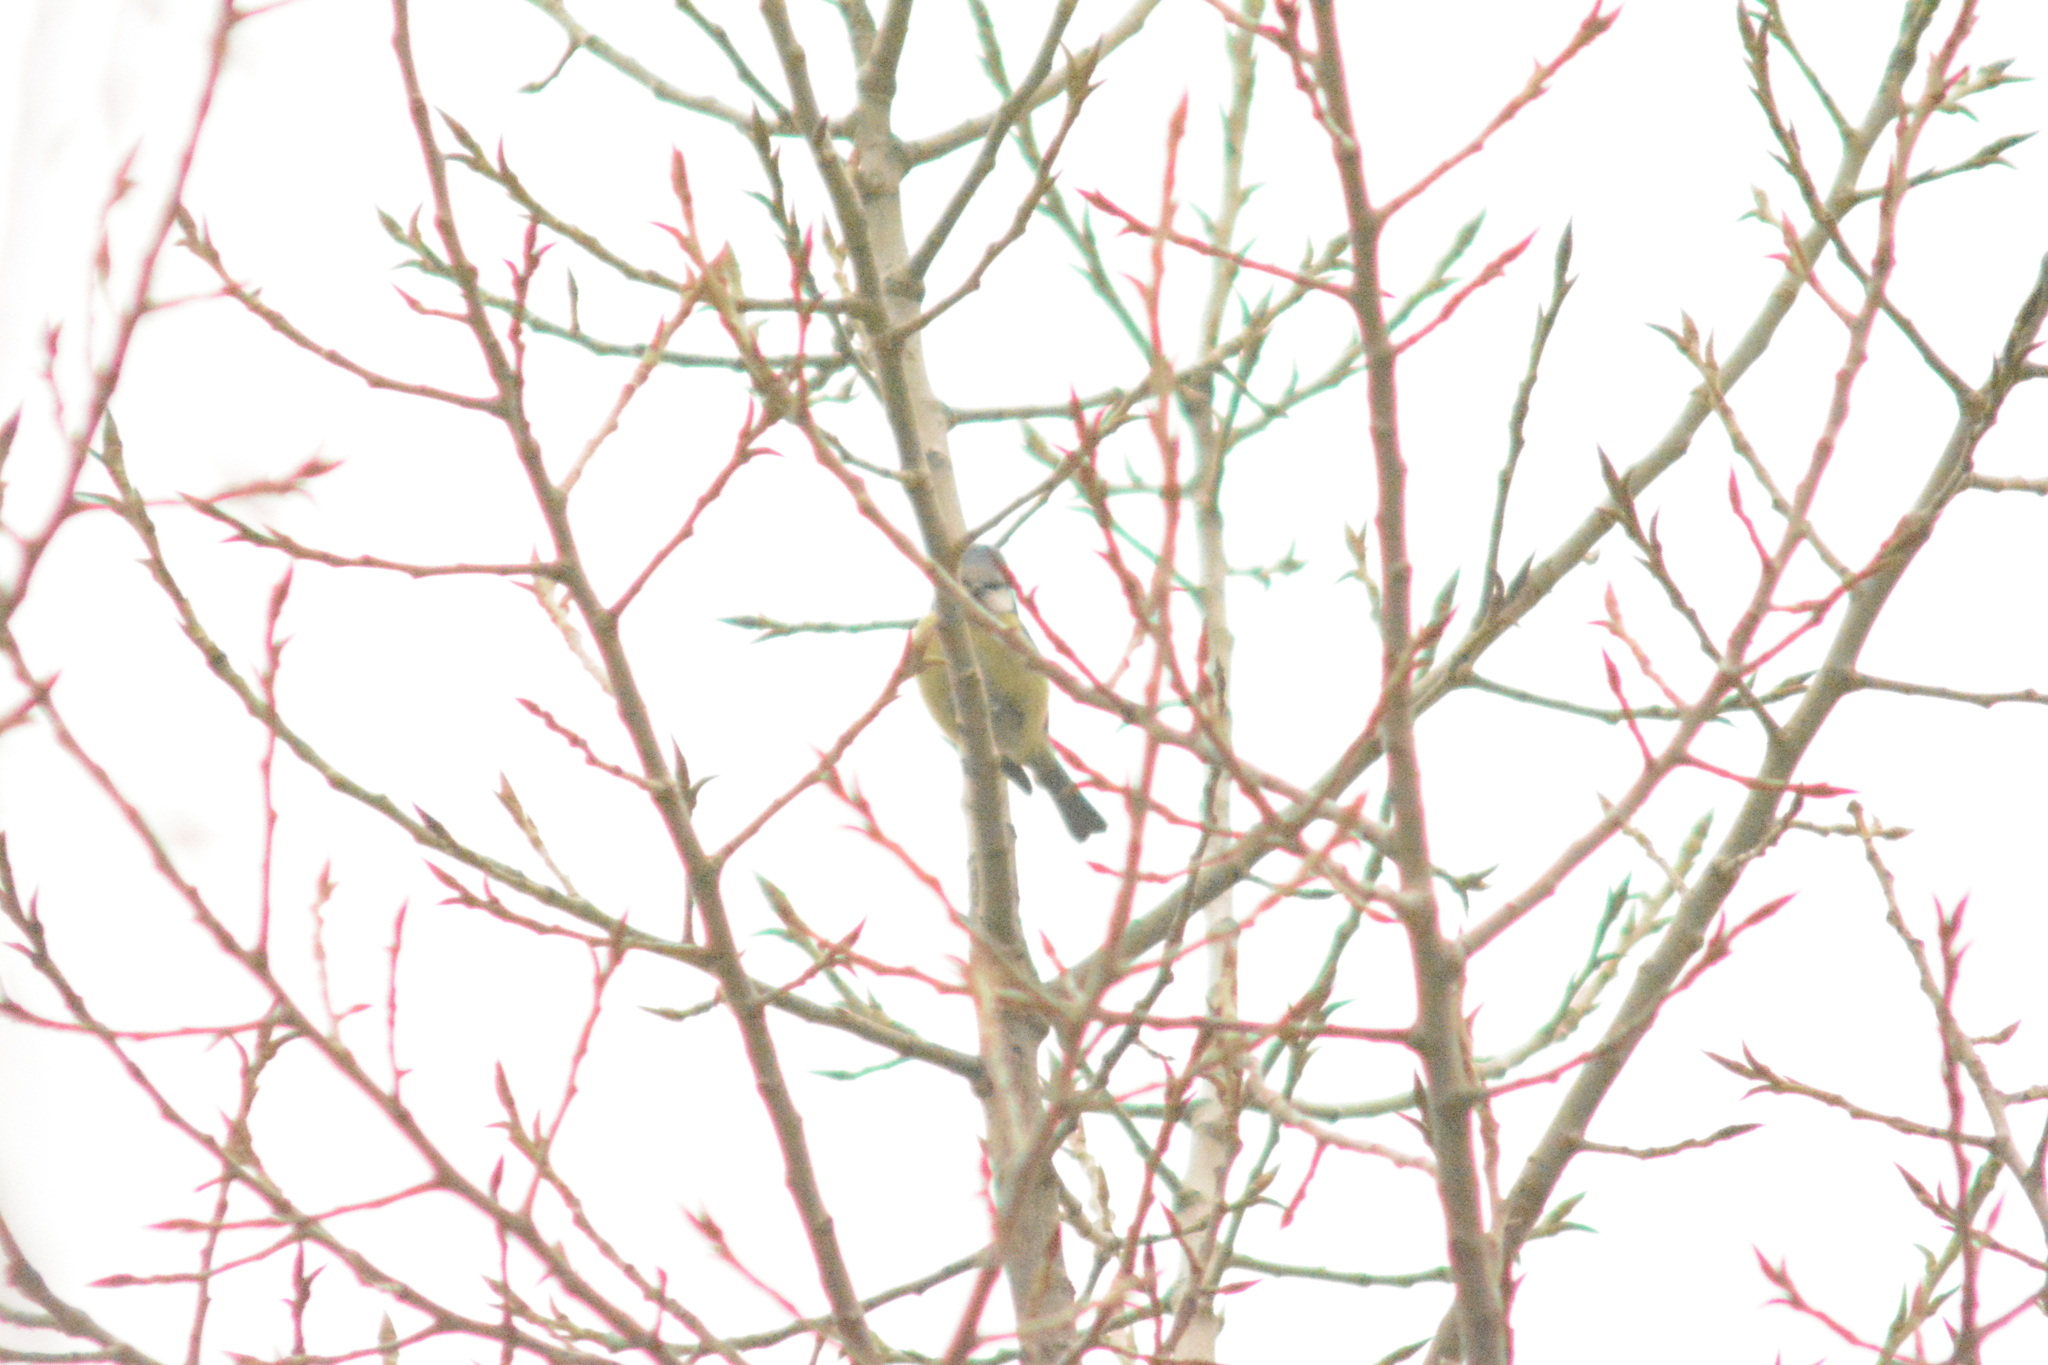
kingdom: Animalia
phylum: Chordata
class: Aves
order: Passeriformes
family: Paridae
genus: Cyanistes
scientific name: Cyanistes caeruleus
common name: Eurasian blue tit
